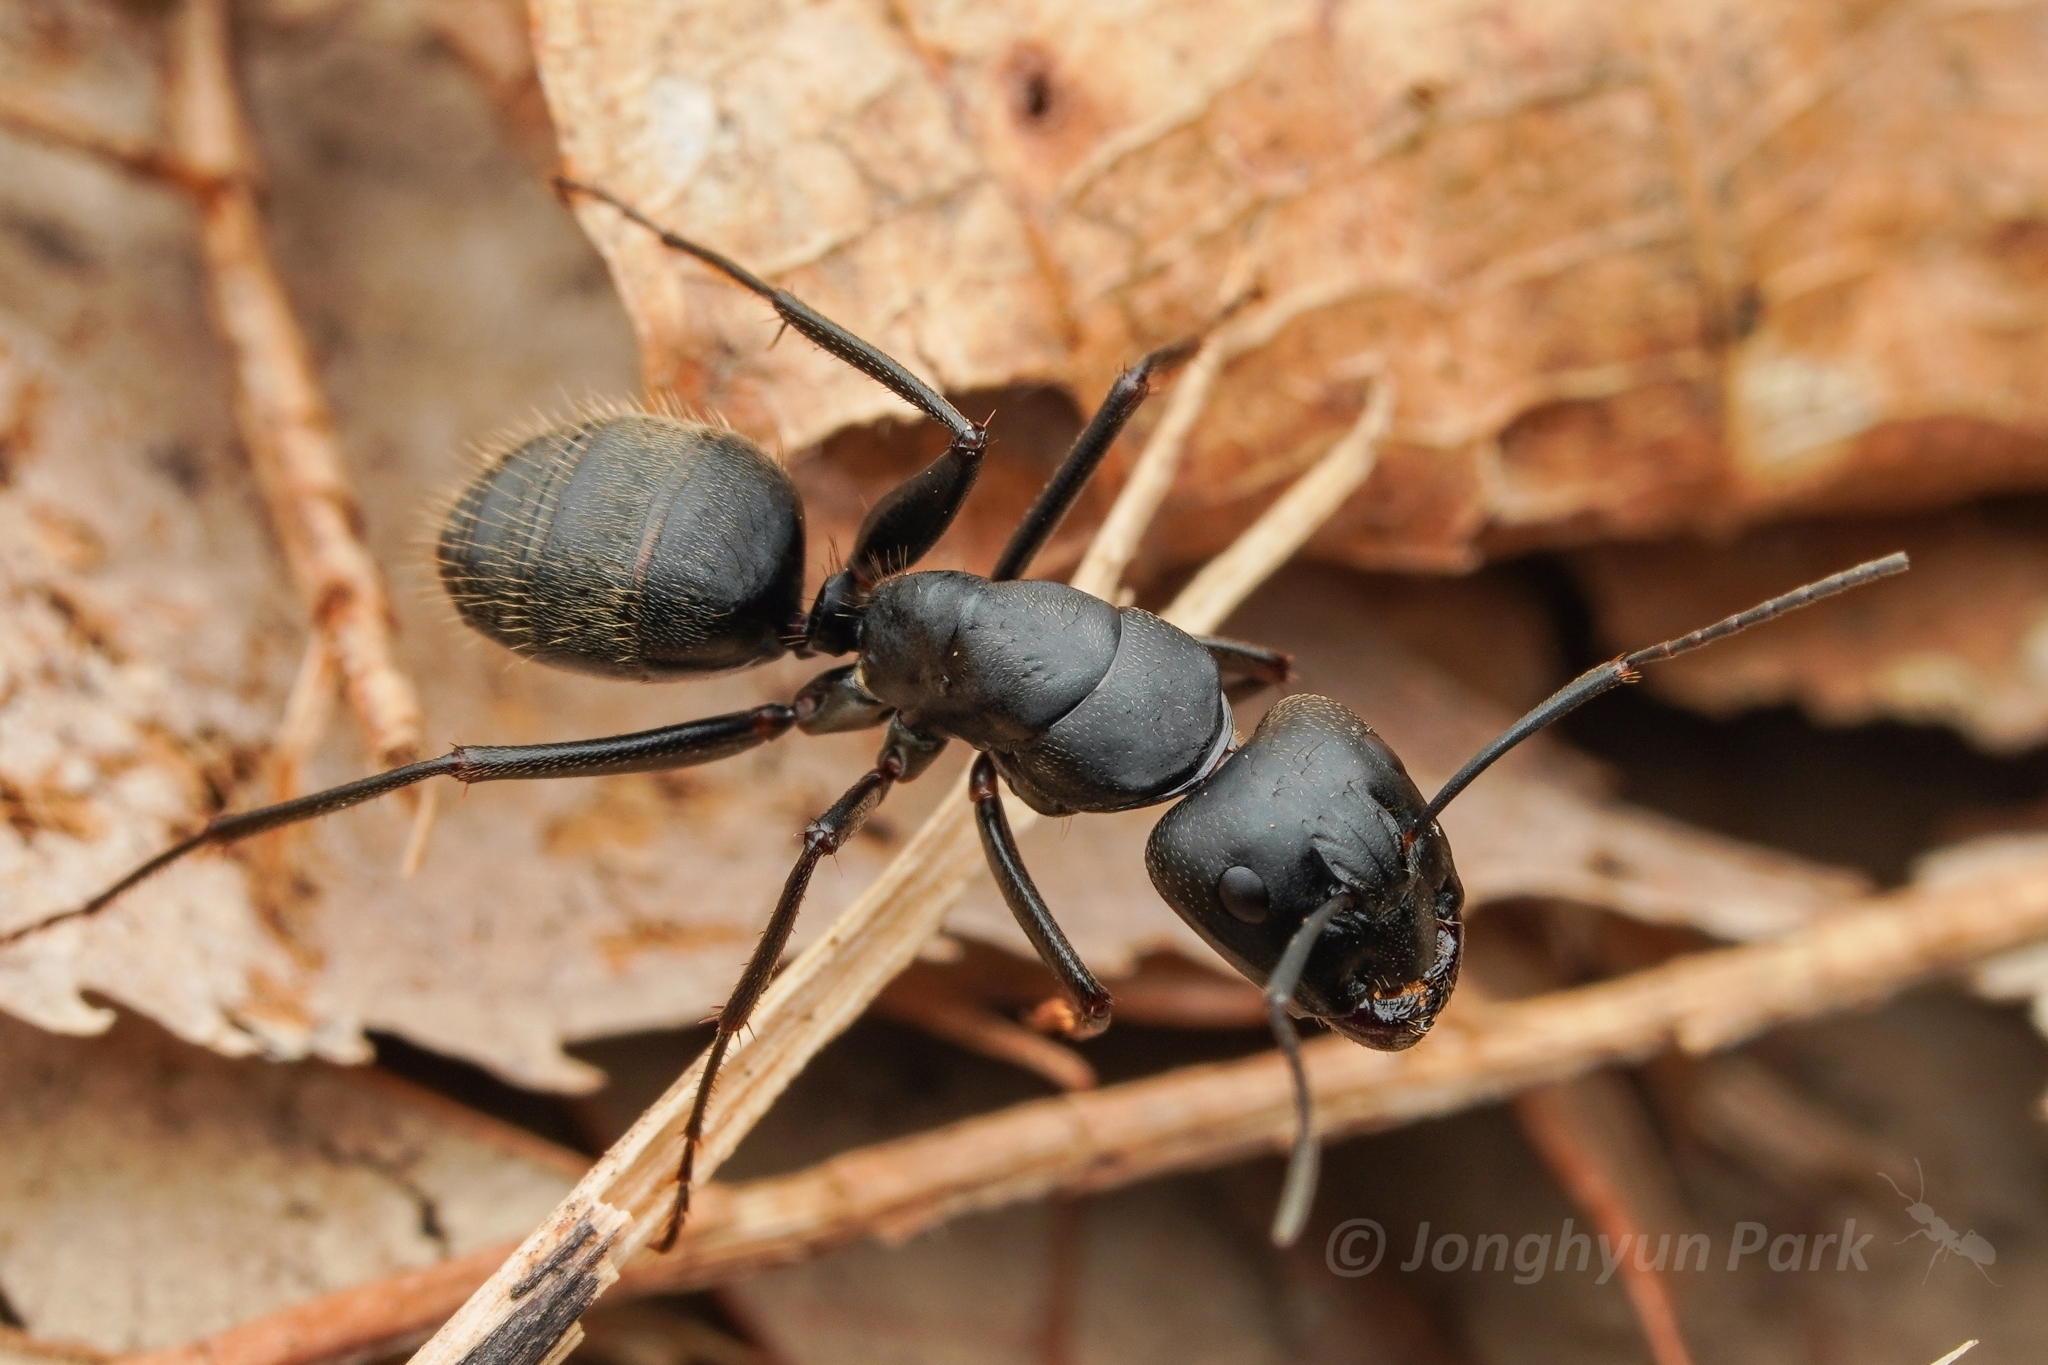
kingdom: Animalia
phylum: Arthropoda
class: Insecta
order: Hymenoptera
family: Formicidae
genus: Camponotus
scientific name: Camponotus japonicus
